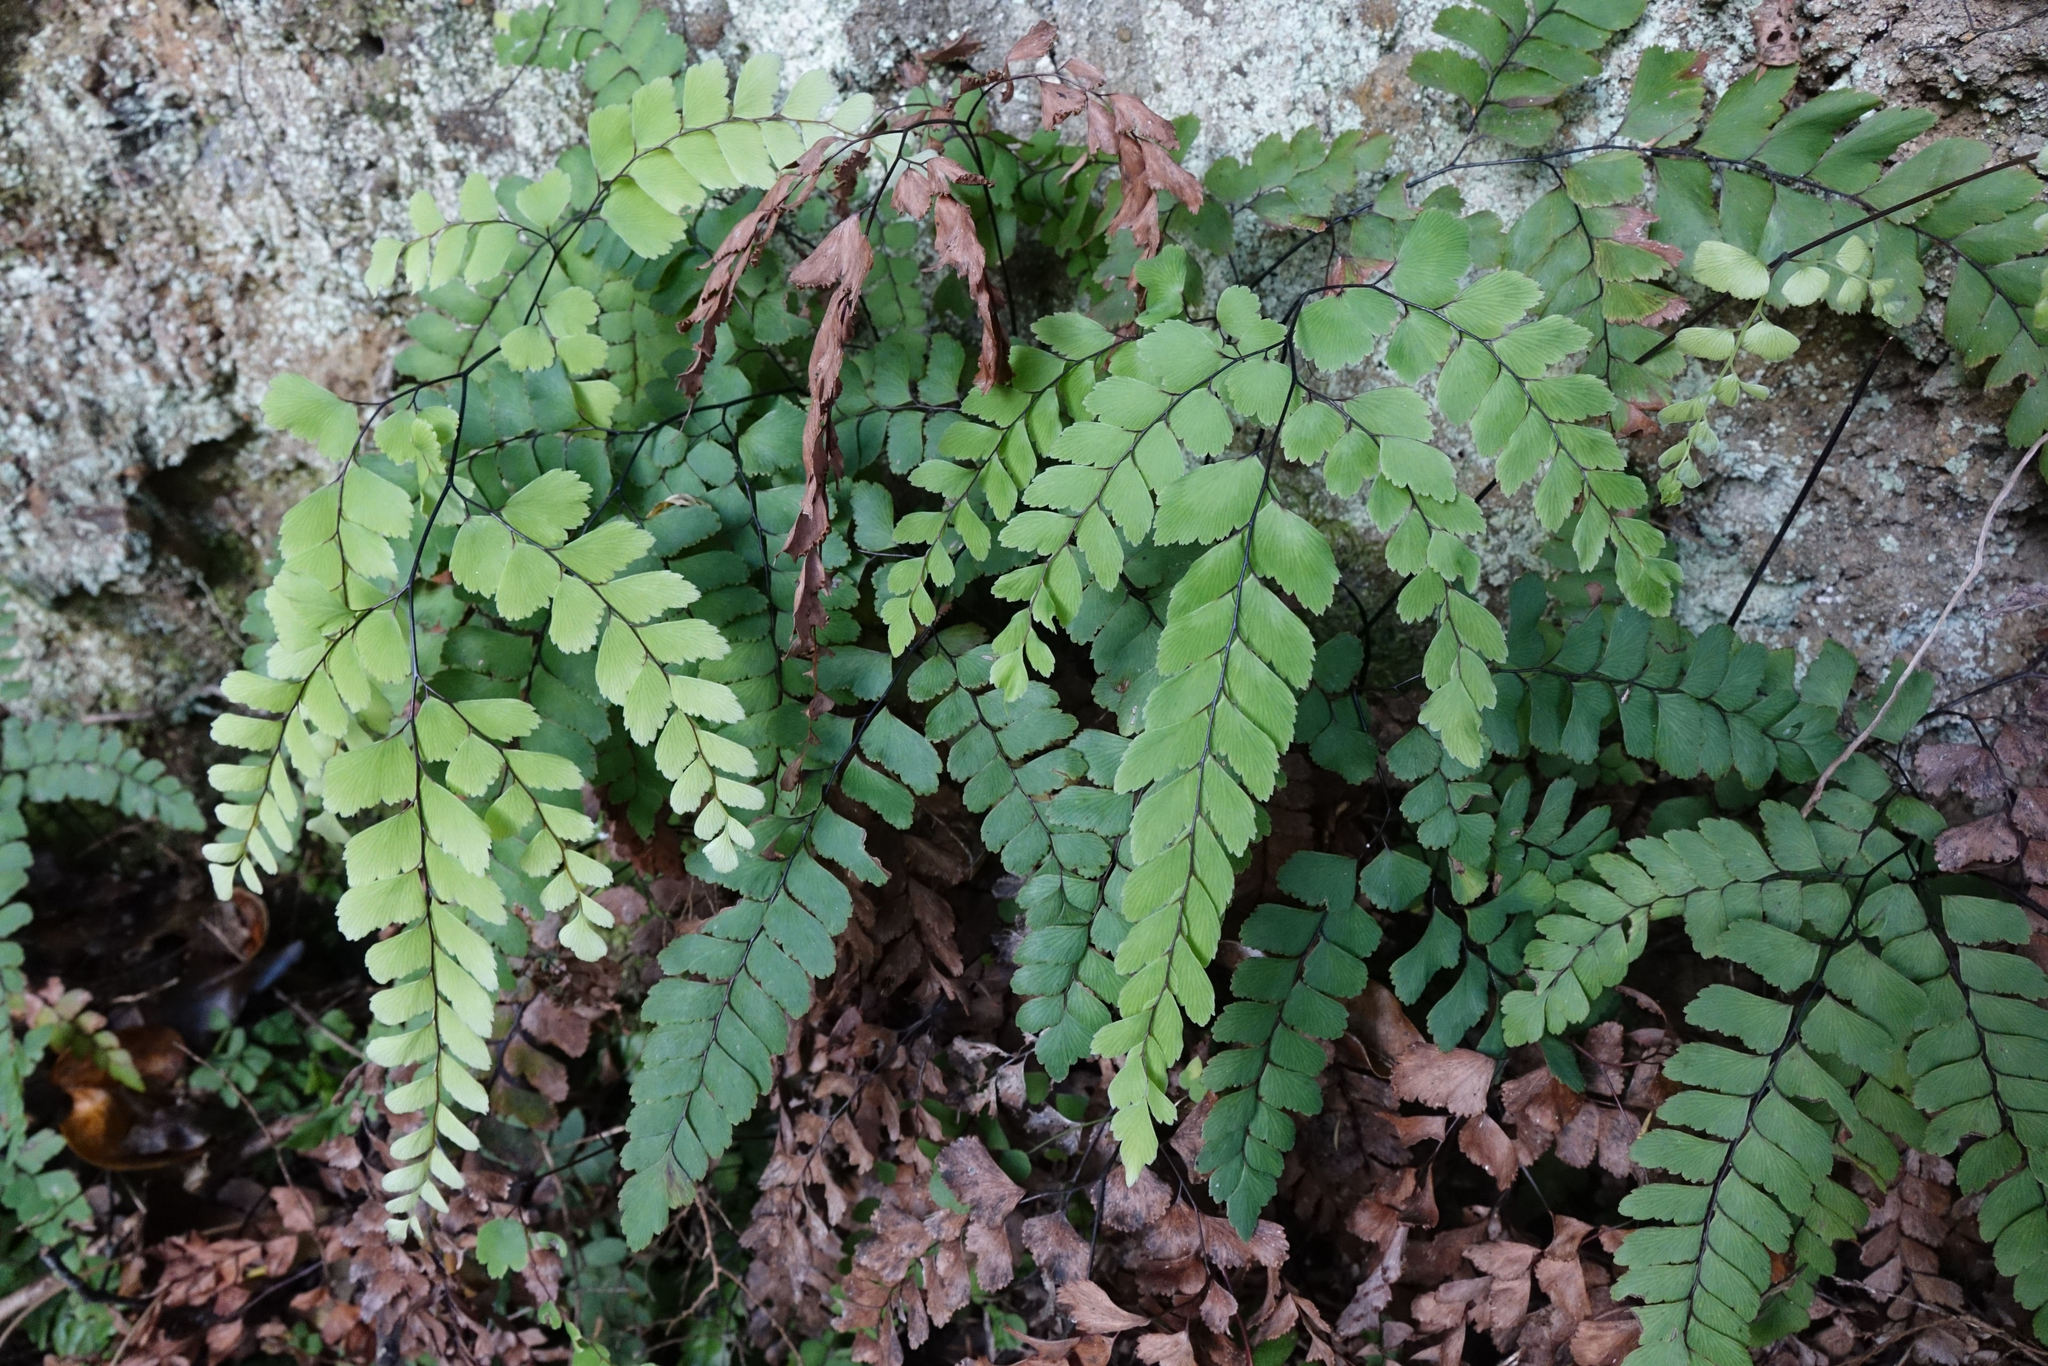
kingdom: Plantae
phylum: Tracheophyta
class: Polypodiopsida
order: Polypodiales
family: Pteridaceae
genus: Adiantum
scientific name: Adiantum cunninghamii
